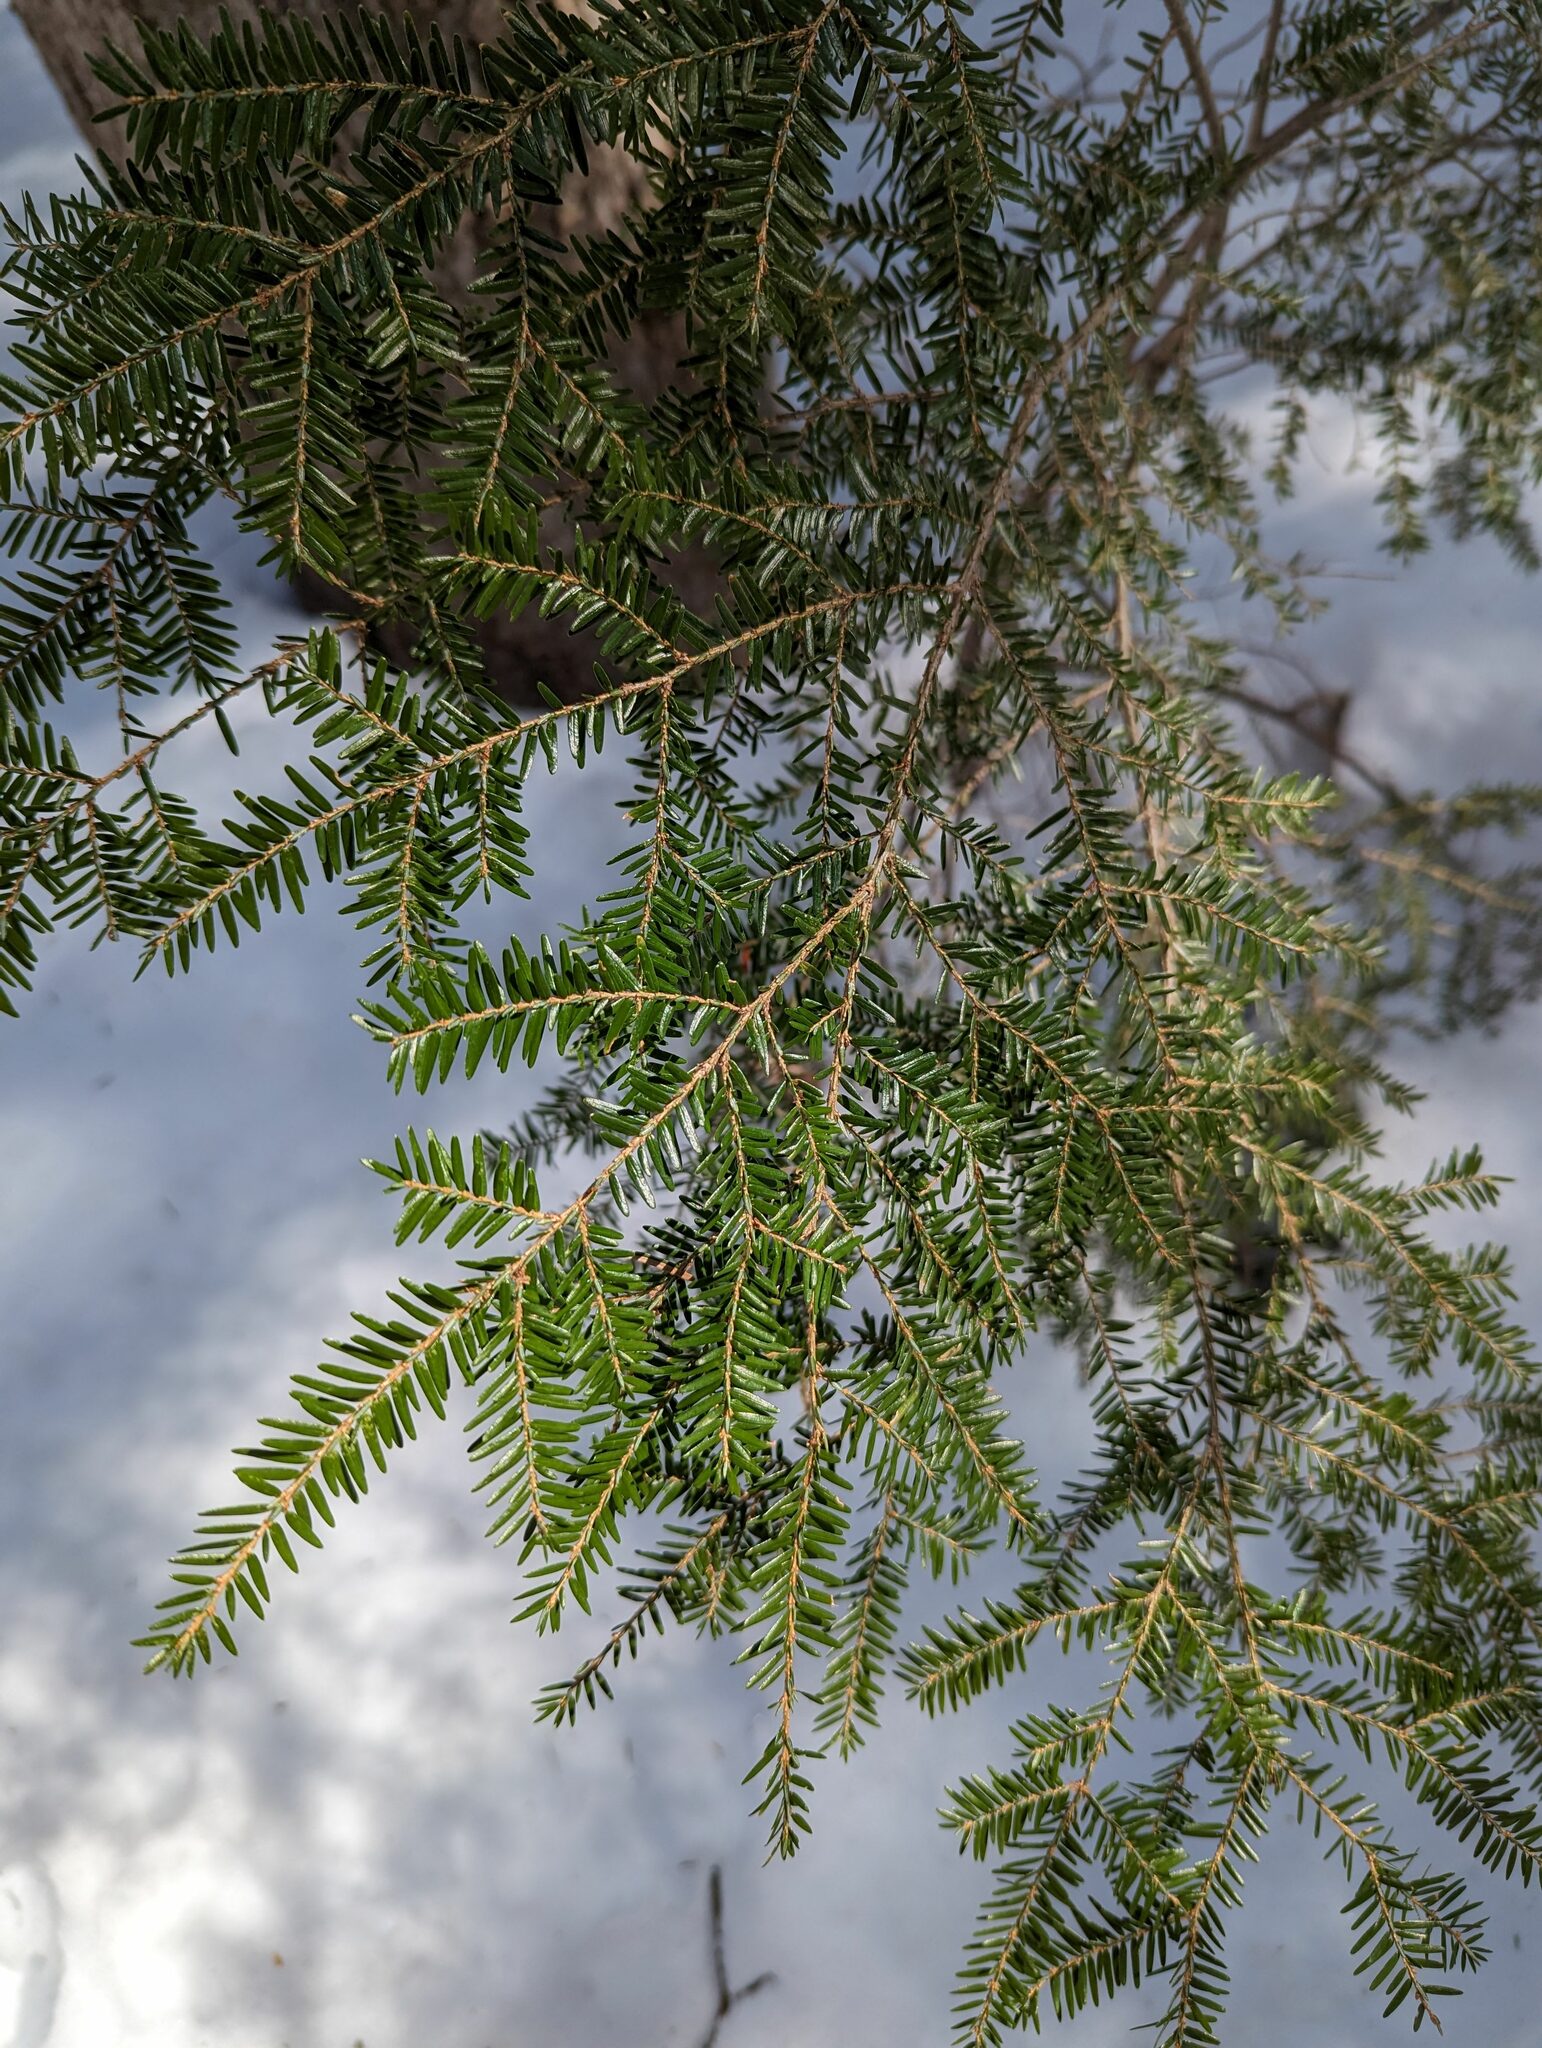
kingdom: Plantae
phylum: Tracheophyta
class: Pinopsida
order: Pinales
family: Pinaceae
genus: Tsuga
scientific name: Tsuga canadensis
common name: Eastern hemlock
